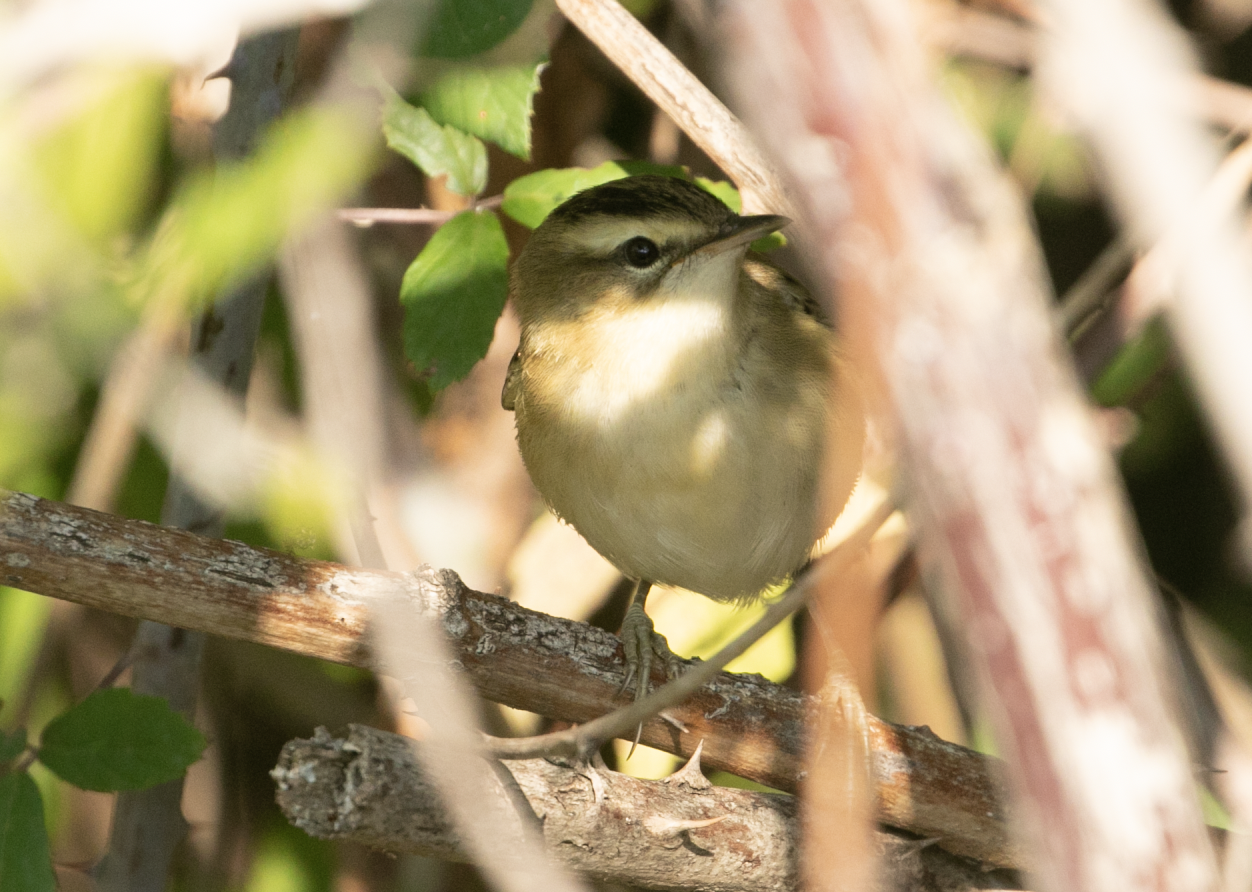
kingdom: Animalia
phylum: Chordata
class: Aves
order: Passeriformes
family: Acrocephalidae
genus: Acrocephalus
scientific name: Acrocephalus schoenobaenus
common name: Sedge warbler
